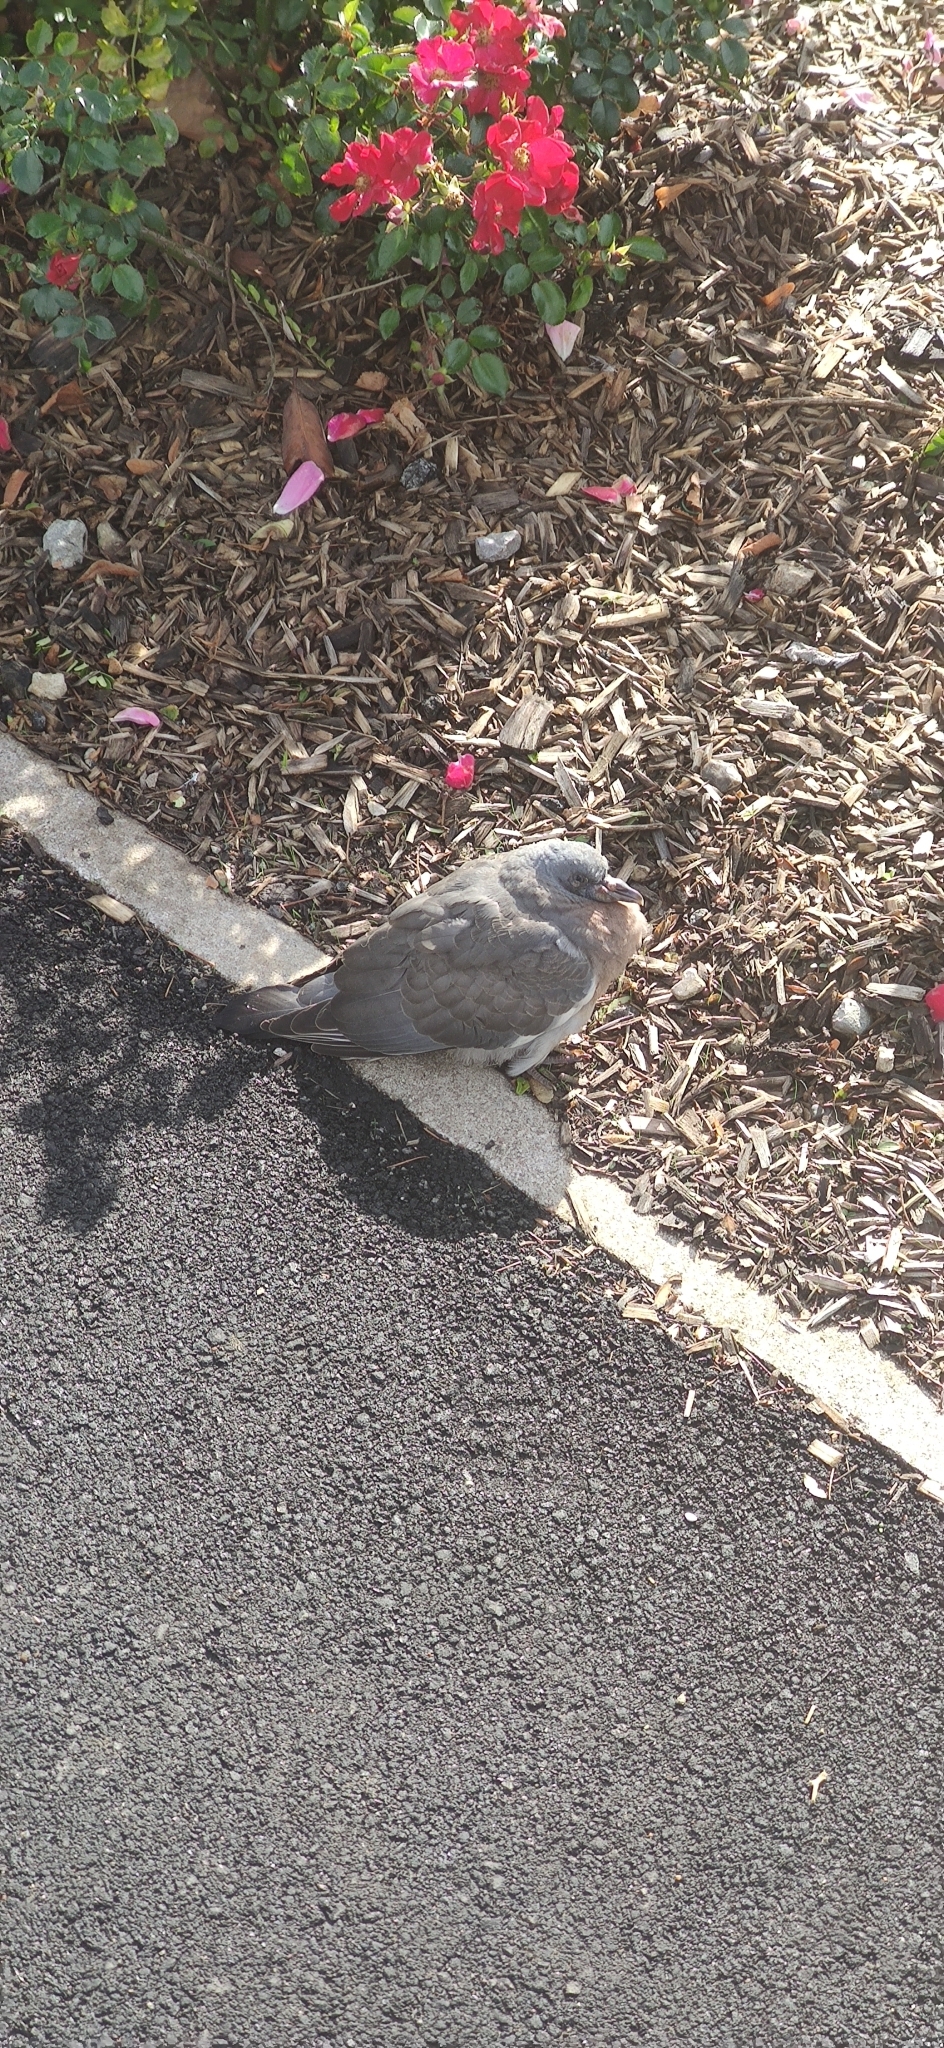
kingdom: Animalia
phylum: Chordata
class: Aves
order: Columbiformes
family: Columbidae
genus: Columba
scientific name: Columba palumbus
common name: Common wood pigeon
